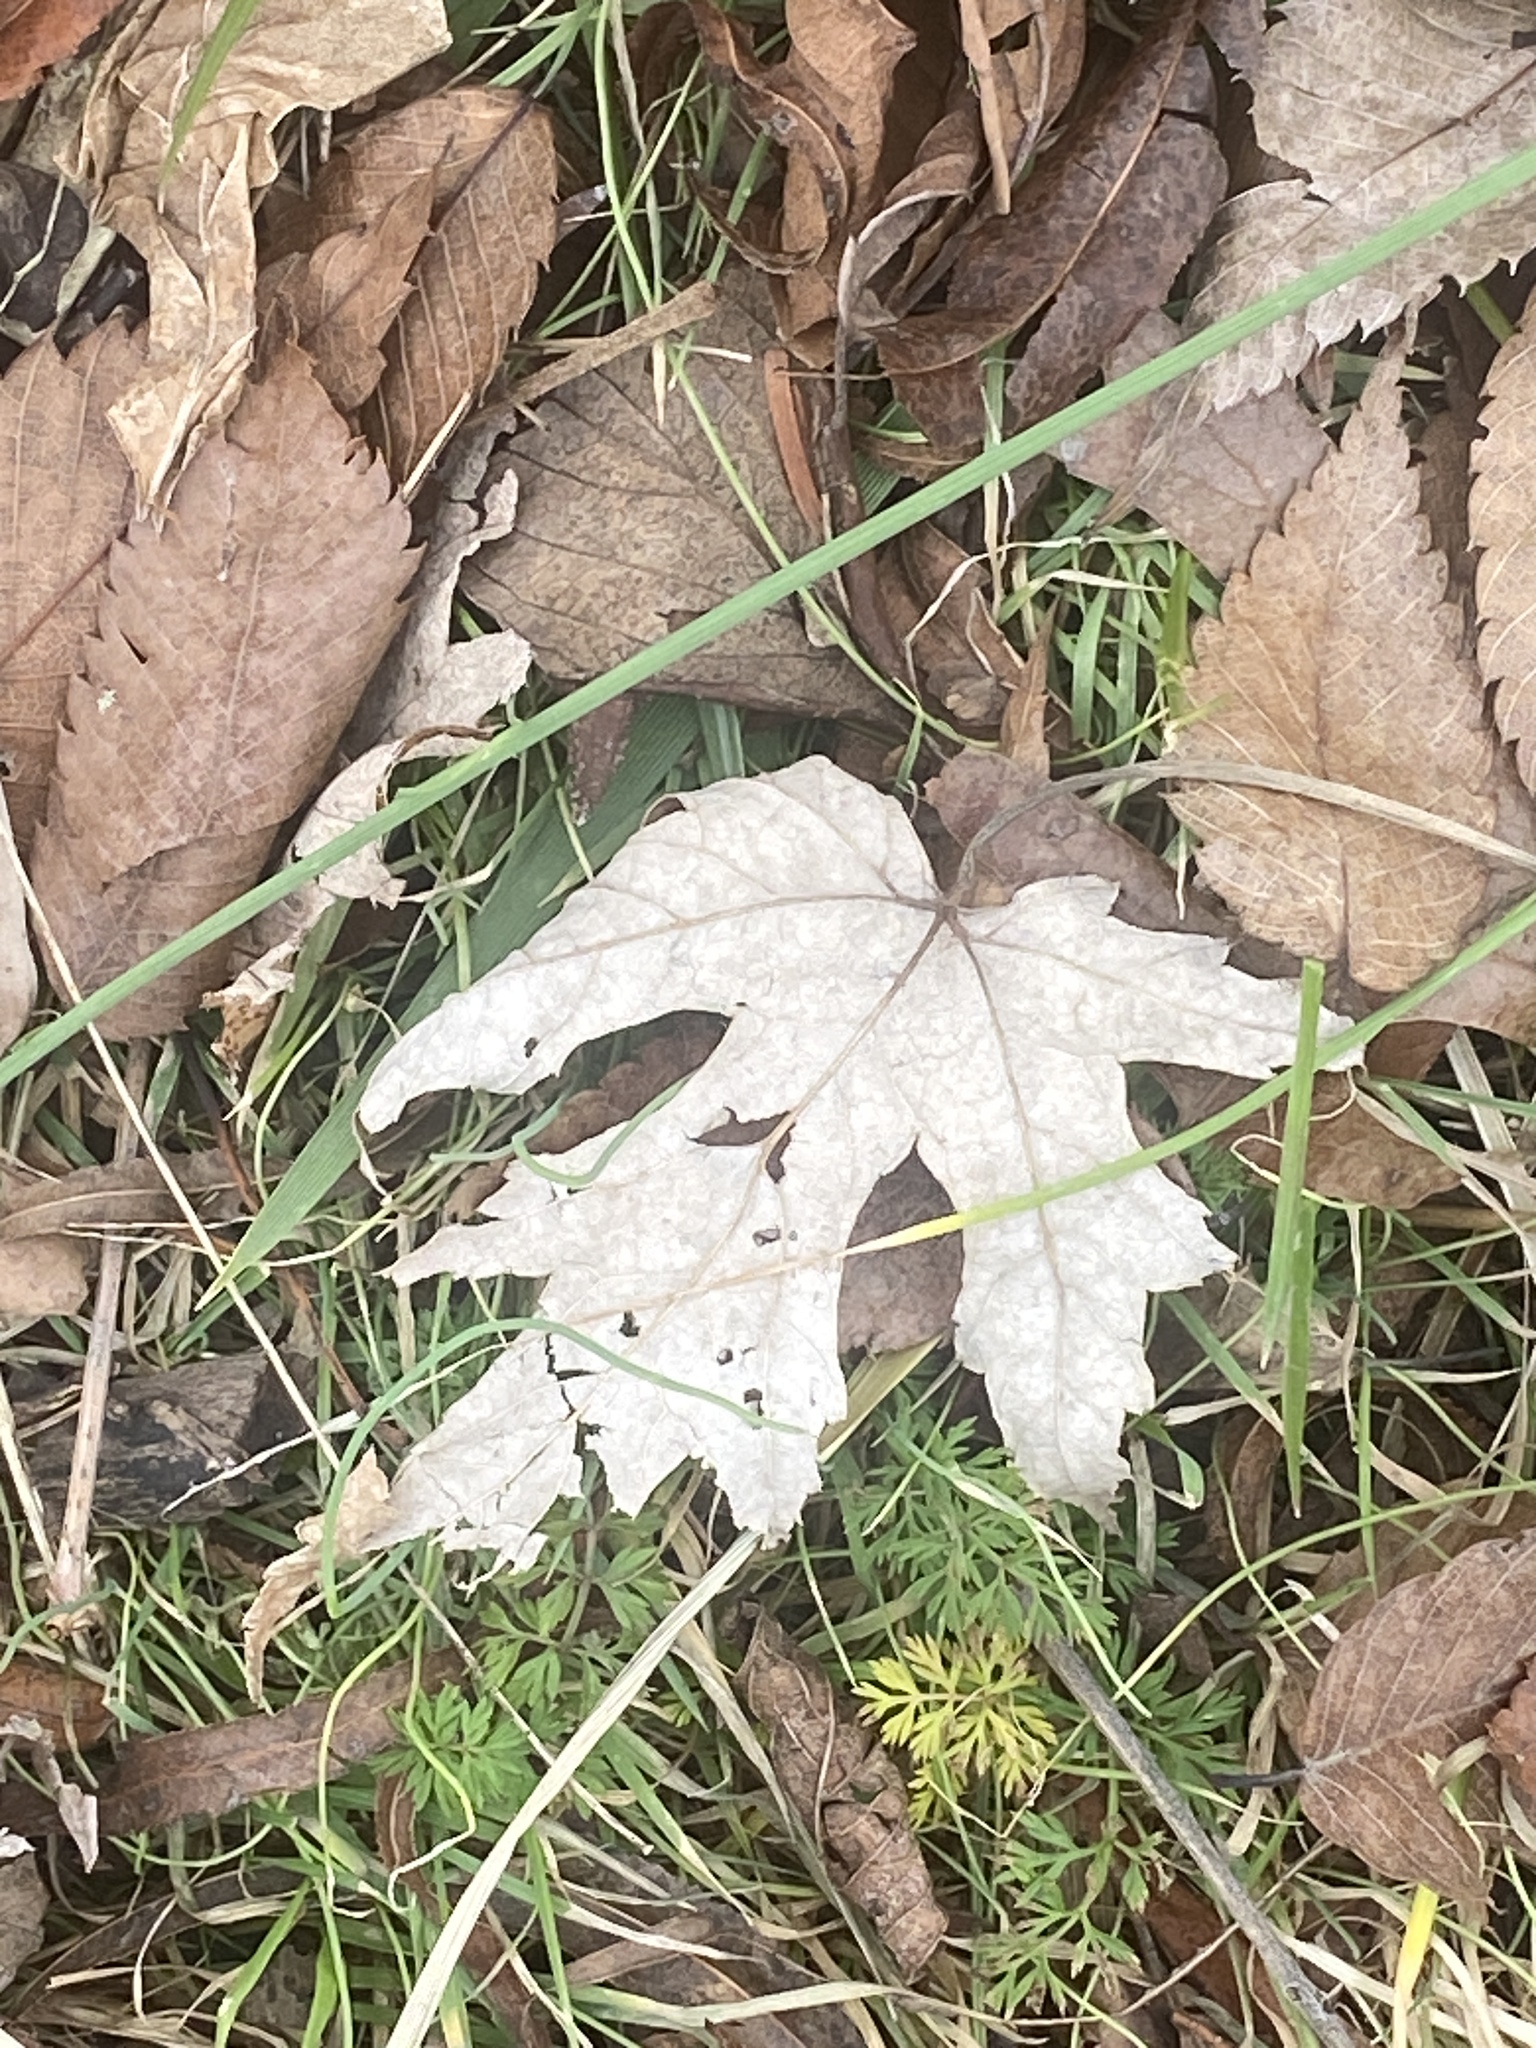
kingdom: Plantae
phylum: Tracheophyta
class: Magnoliopsida
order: Sapindales
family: Sapindaceae
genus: Acer
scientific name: Acer saccharinum
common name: Silver maple
